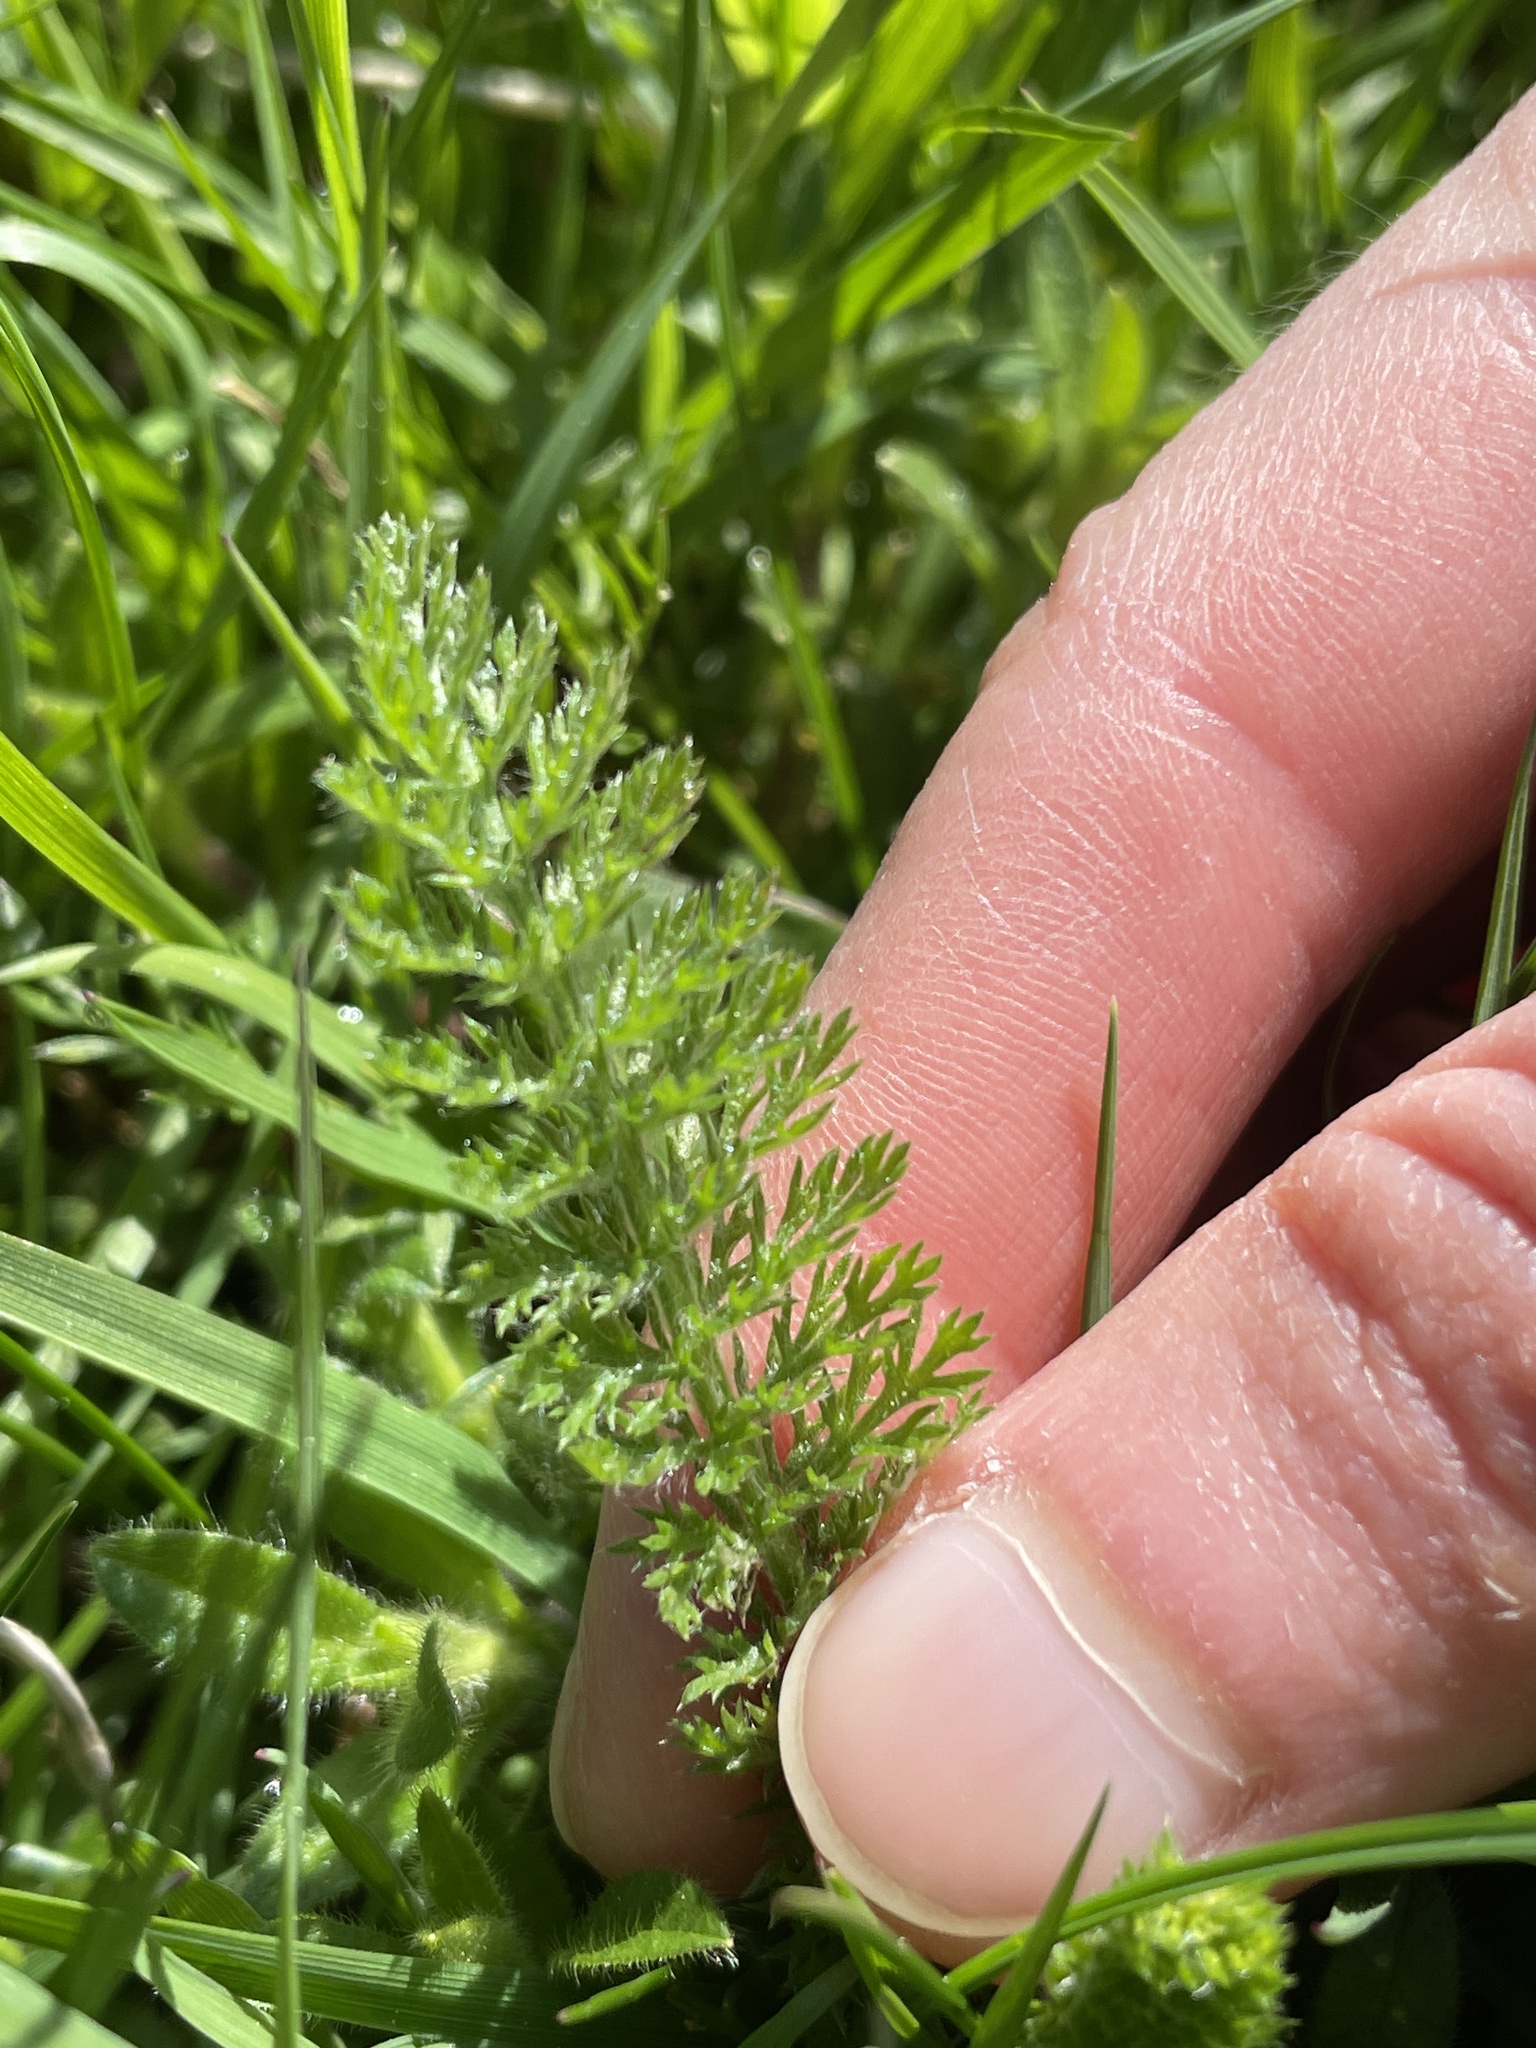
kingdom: Plantae
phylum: Tracheophyta
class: Magnoliopsida
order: Asterales
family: Asteraceae
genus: Achillea
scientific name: Achillea millefolium
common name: Yarrow
